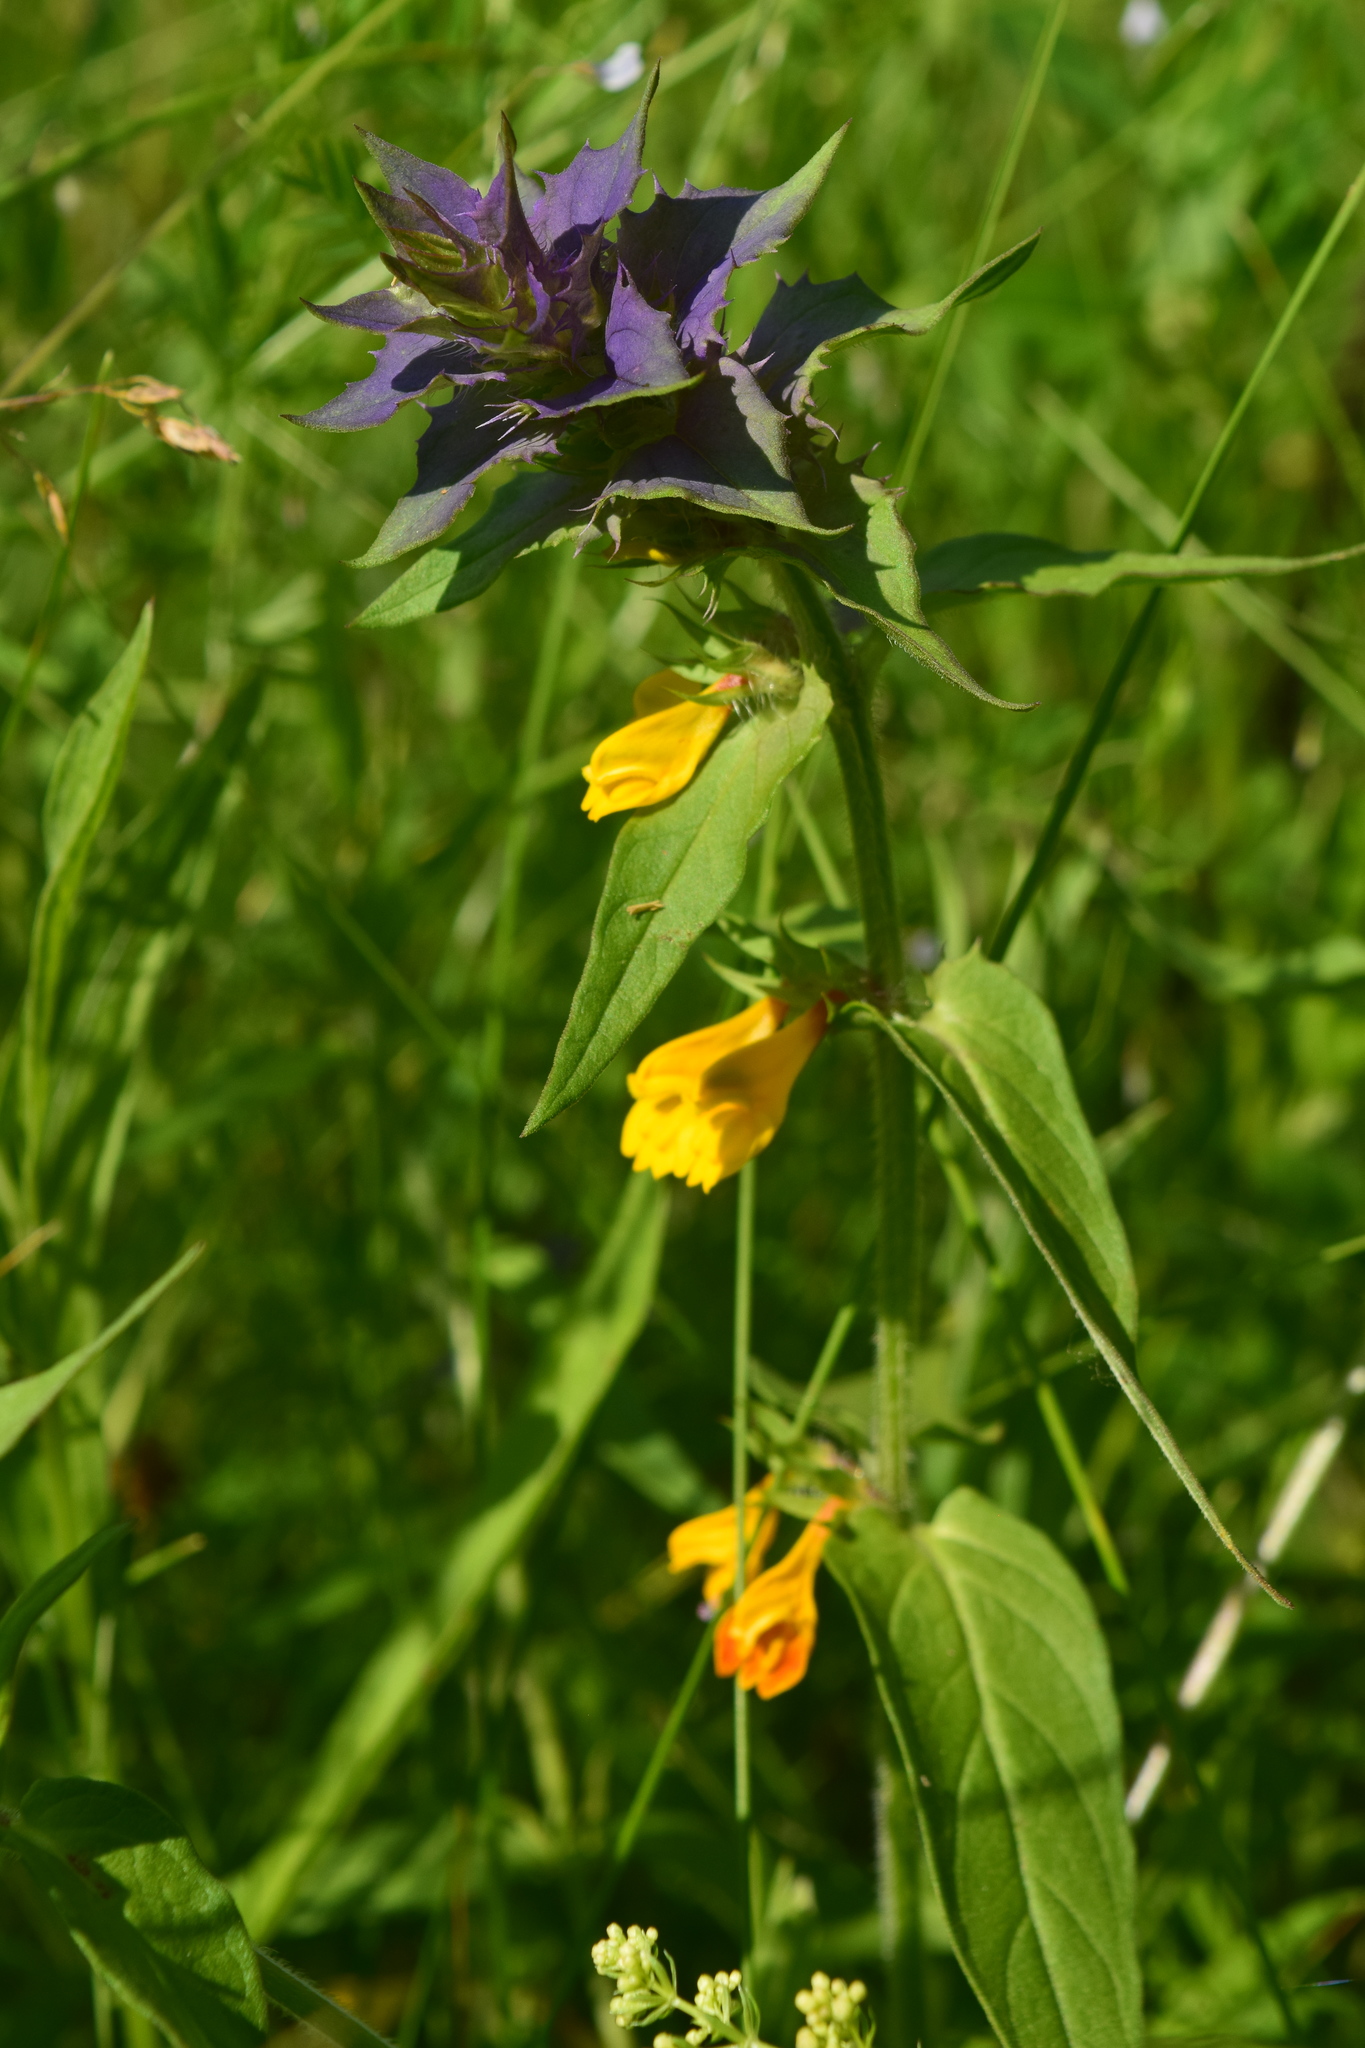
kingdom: Plantae
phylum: Tracheophyta
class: Magnoliopsida
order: Lamiales
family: Orobanchaceae
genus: Melampyrum
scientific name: Melampyrum nemorosum
